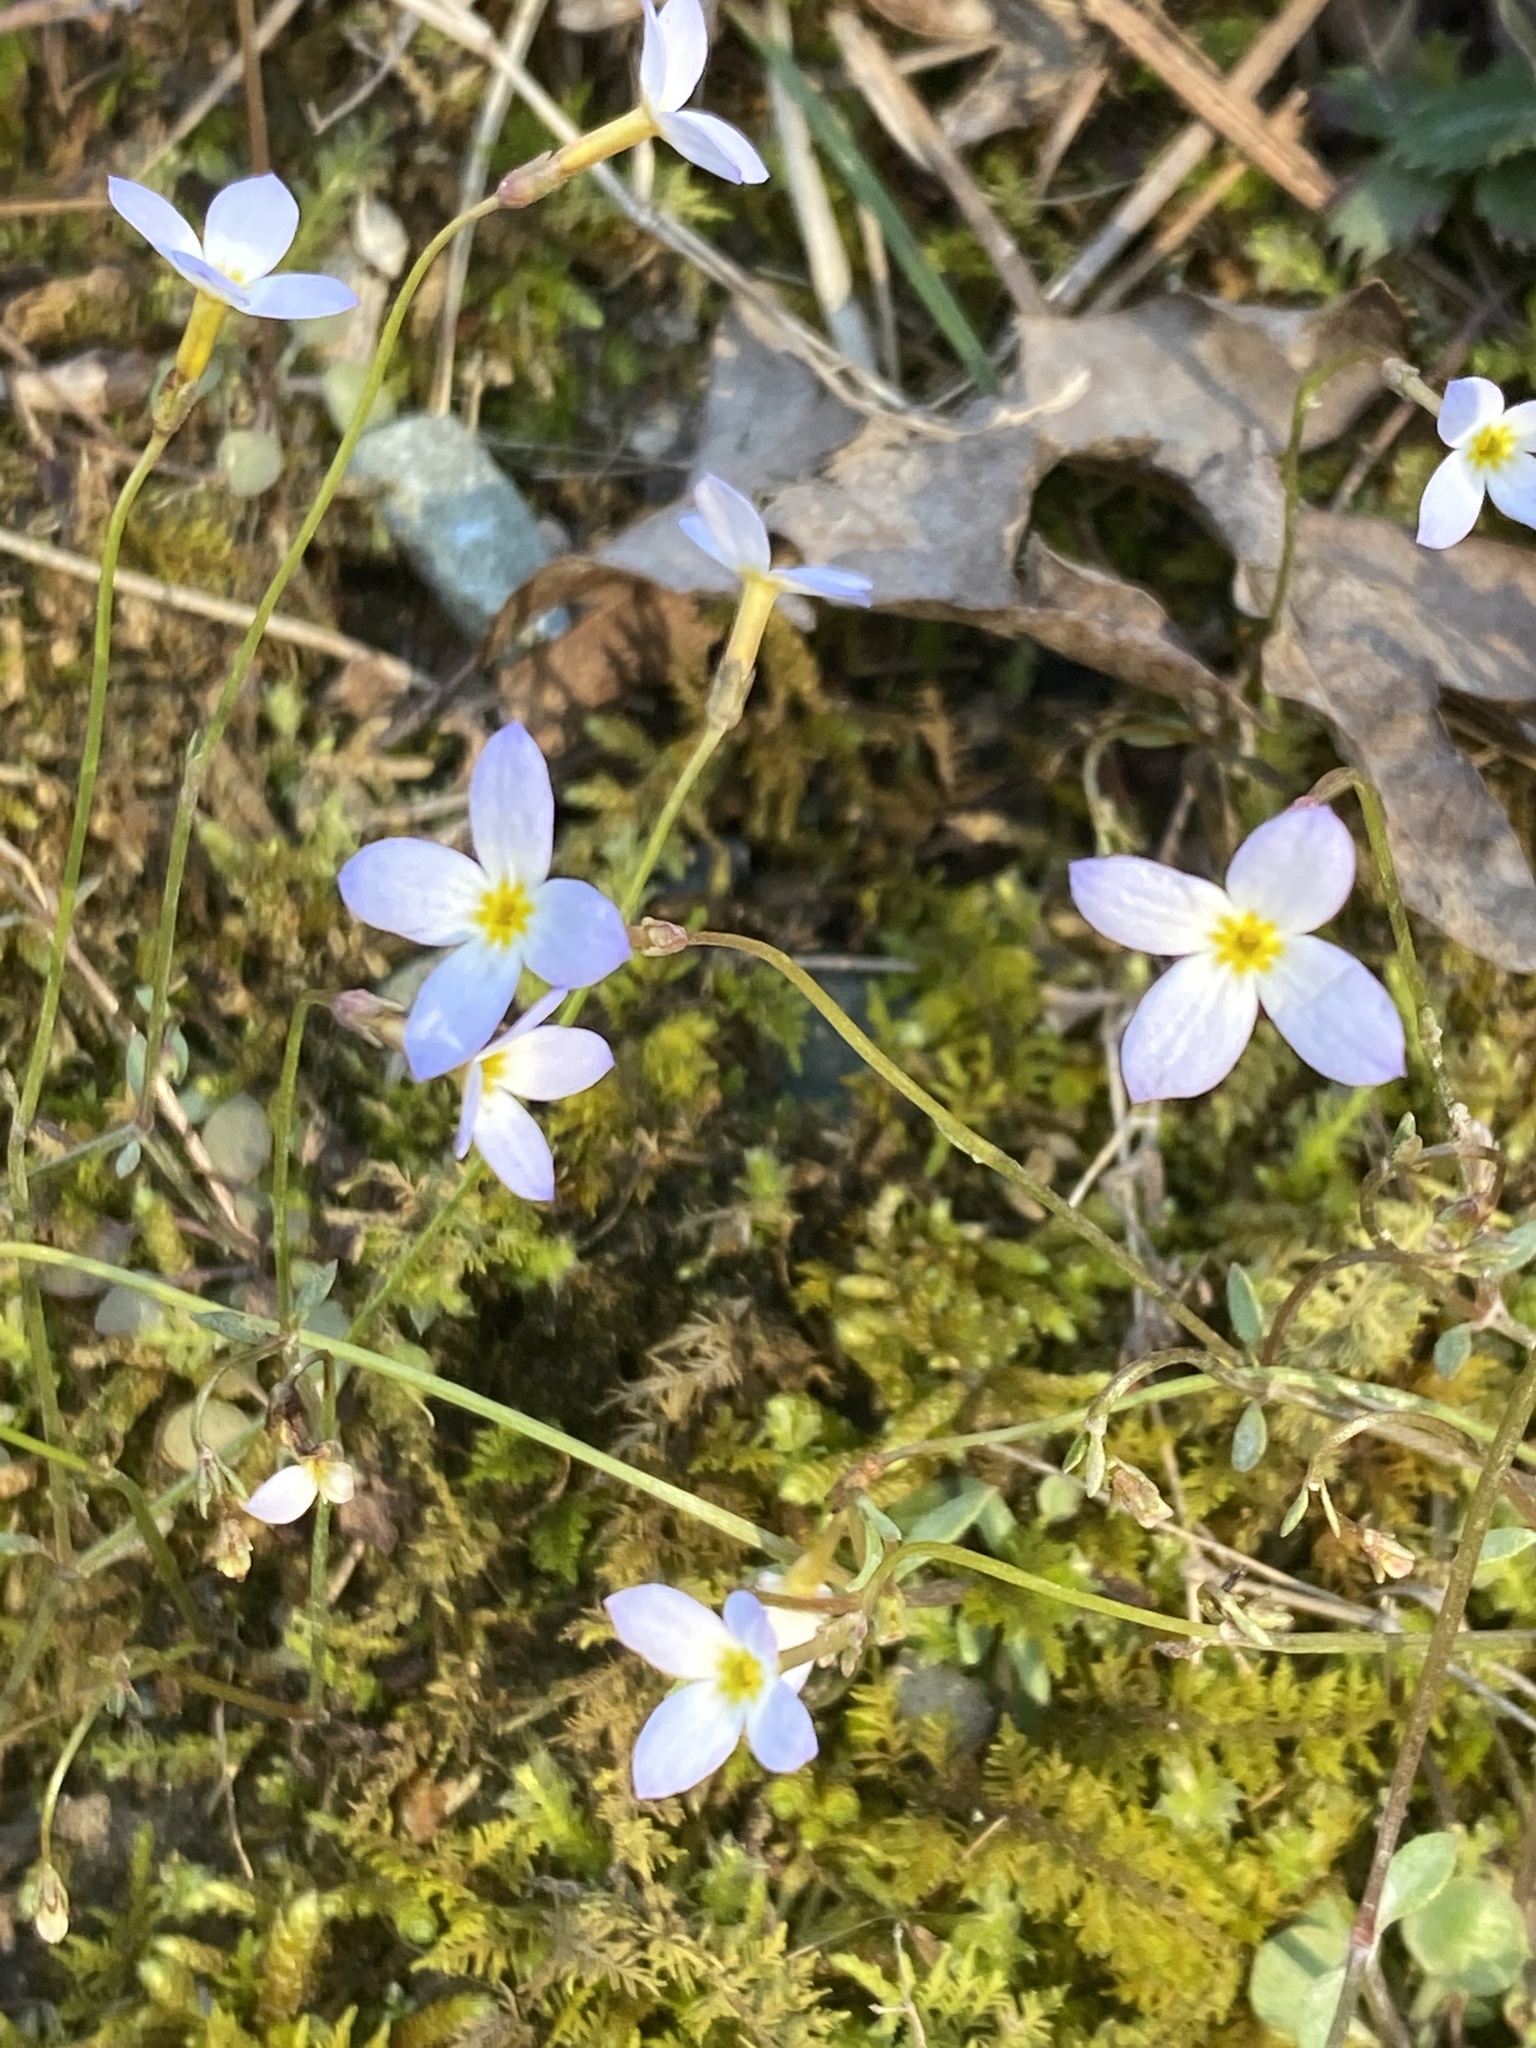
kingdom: Plantae
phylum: Tracheophyta
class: Magnoliopsida
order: Gentianales
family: Rubiaceae
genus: Houstonia
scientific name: Houstonia caerulea
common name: Bluets
